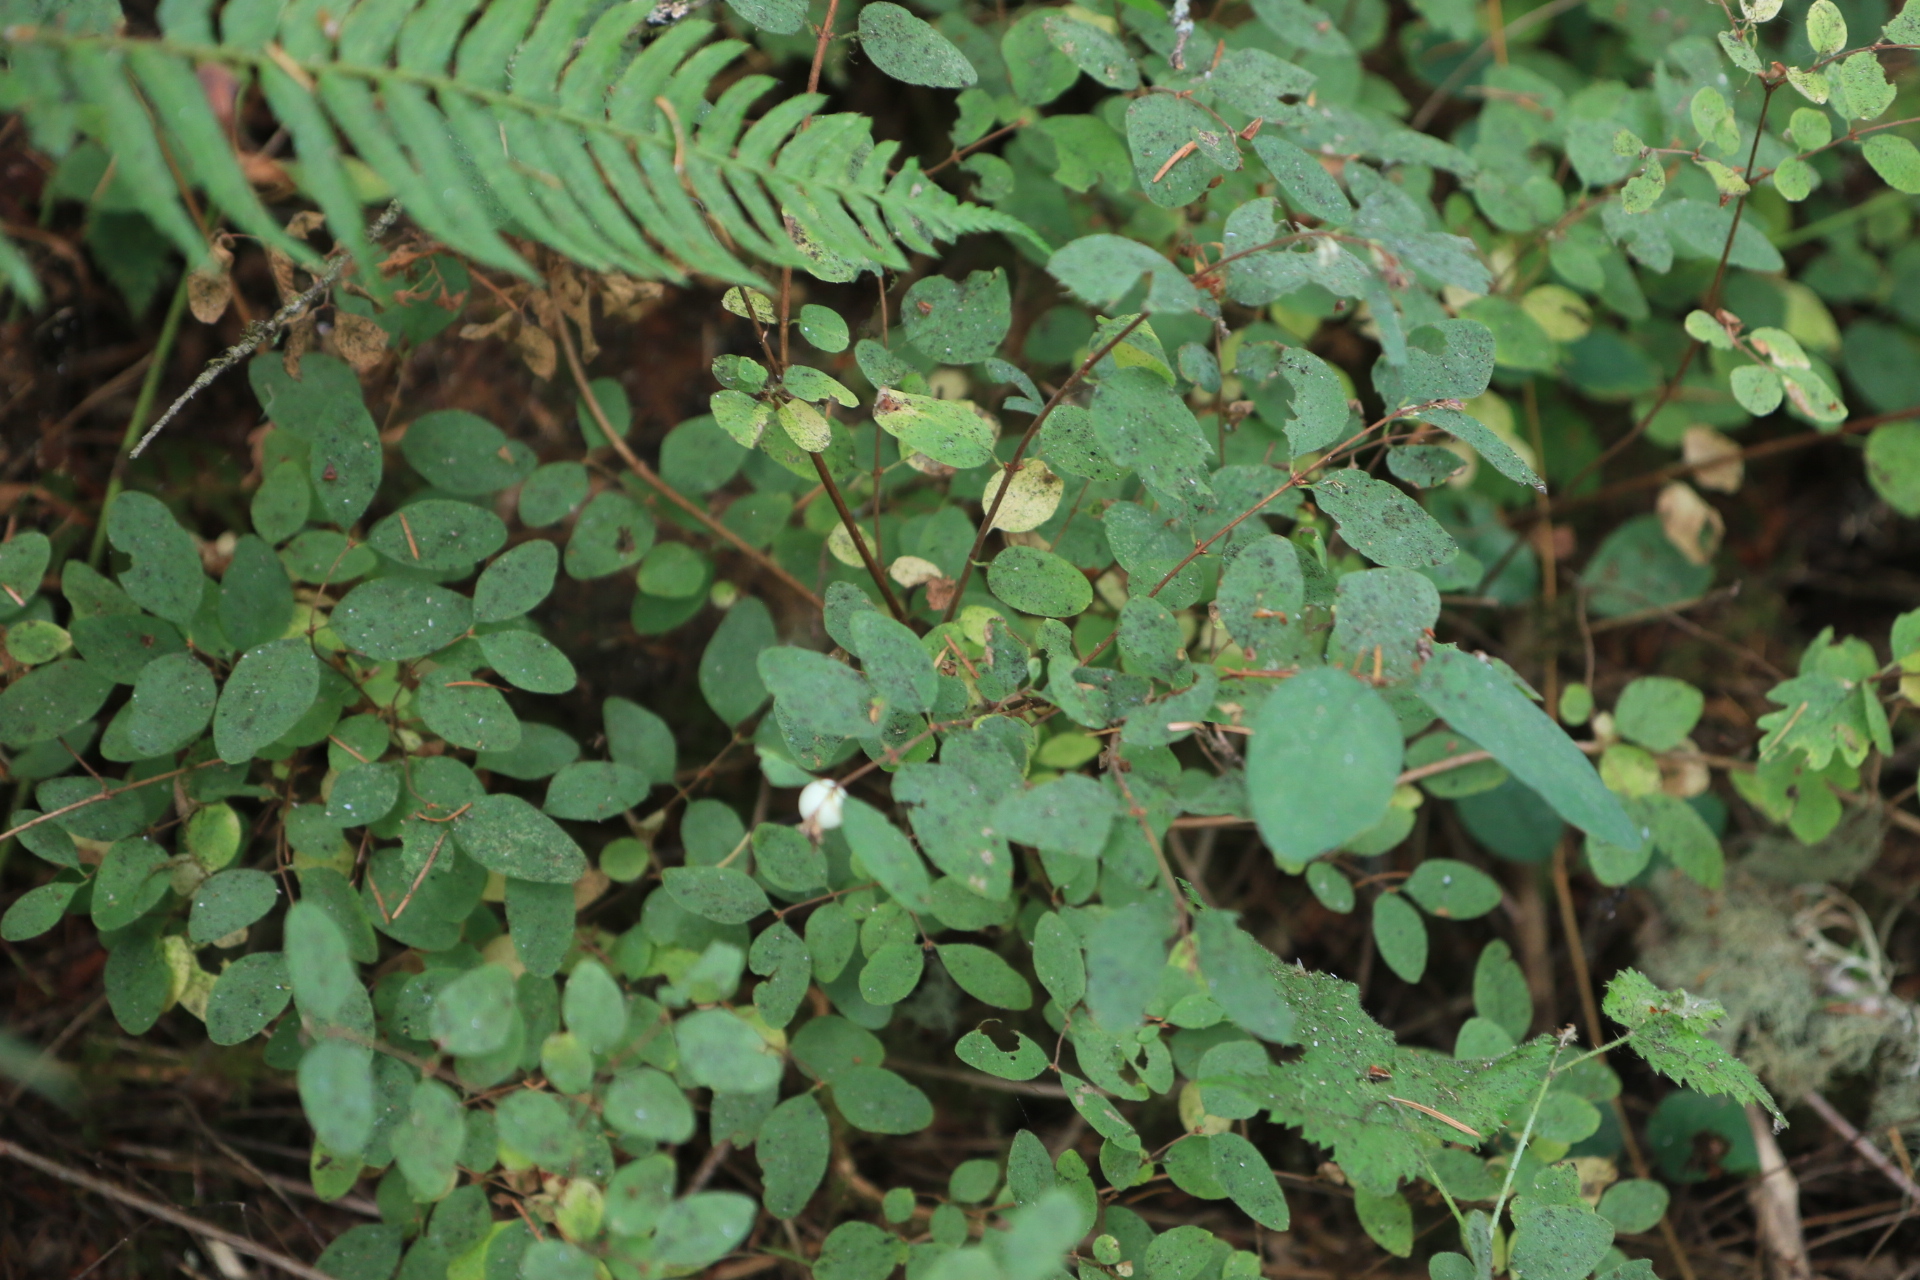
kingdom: Plantae
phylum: Tracheophyta
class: Magnoliopsida
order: Dipsacales
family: Caprifoliaceae
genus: Symphoricarpos
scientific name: Symphoricarpos albus
